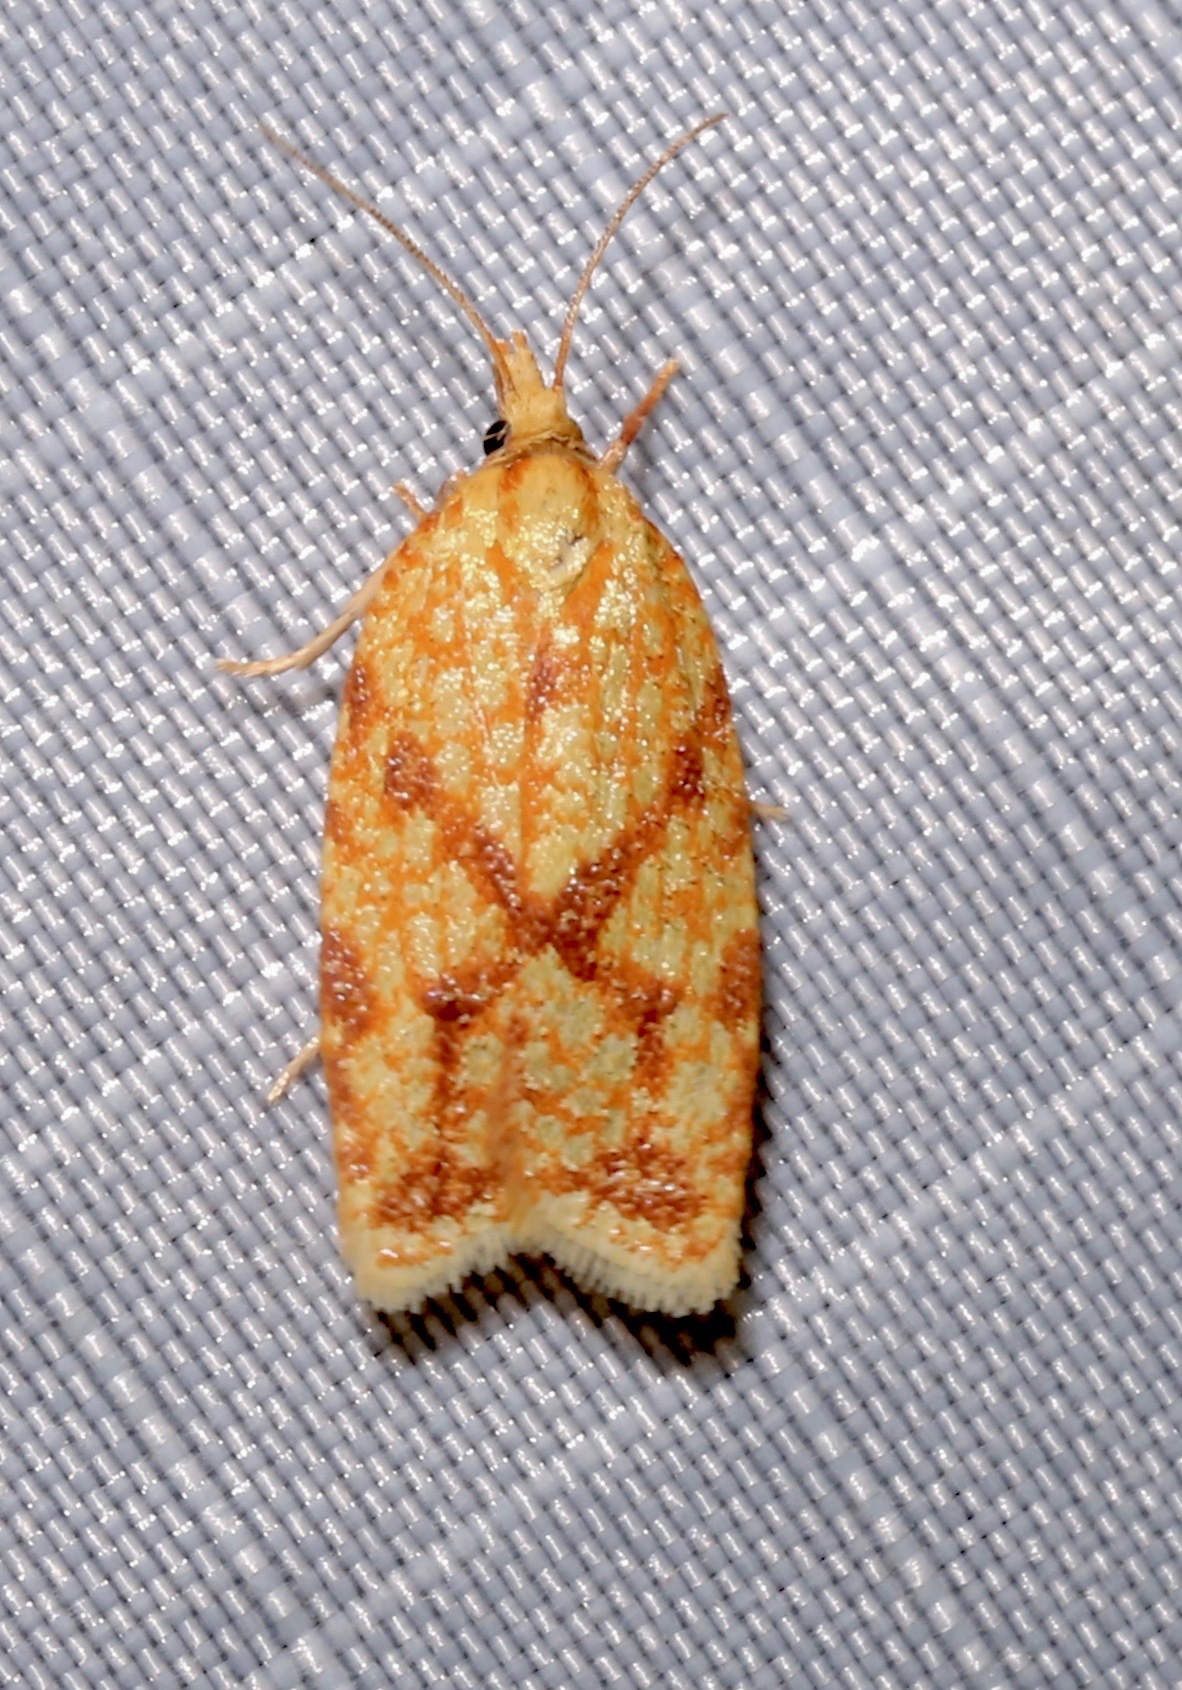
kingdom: Animalia
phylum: Arthropoda
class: Insecta
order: Lepidoptera
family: Tortricidae
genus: Sparganothis
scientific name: Sparganothis sulfureana
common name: Sparganothis fruitworm moth
